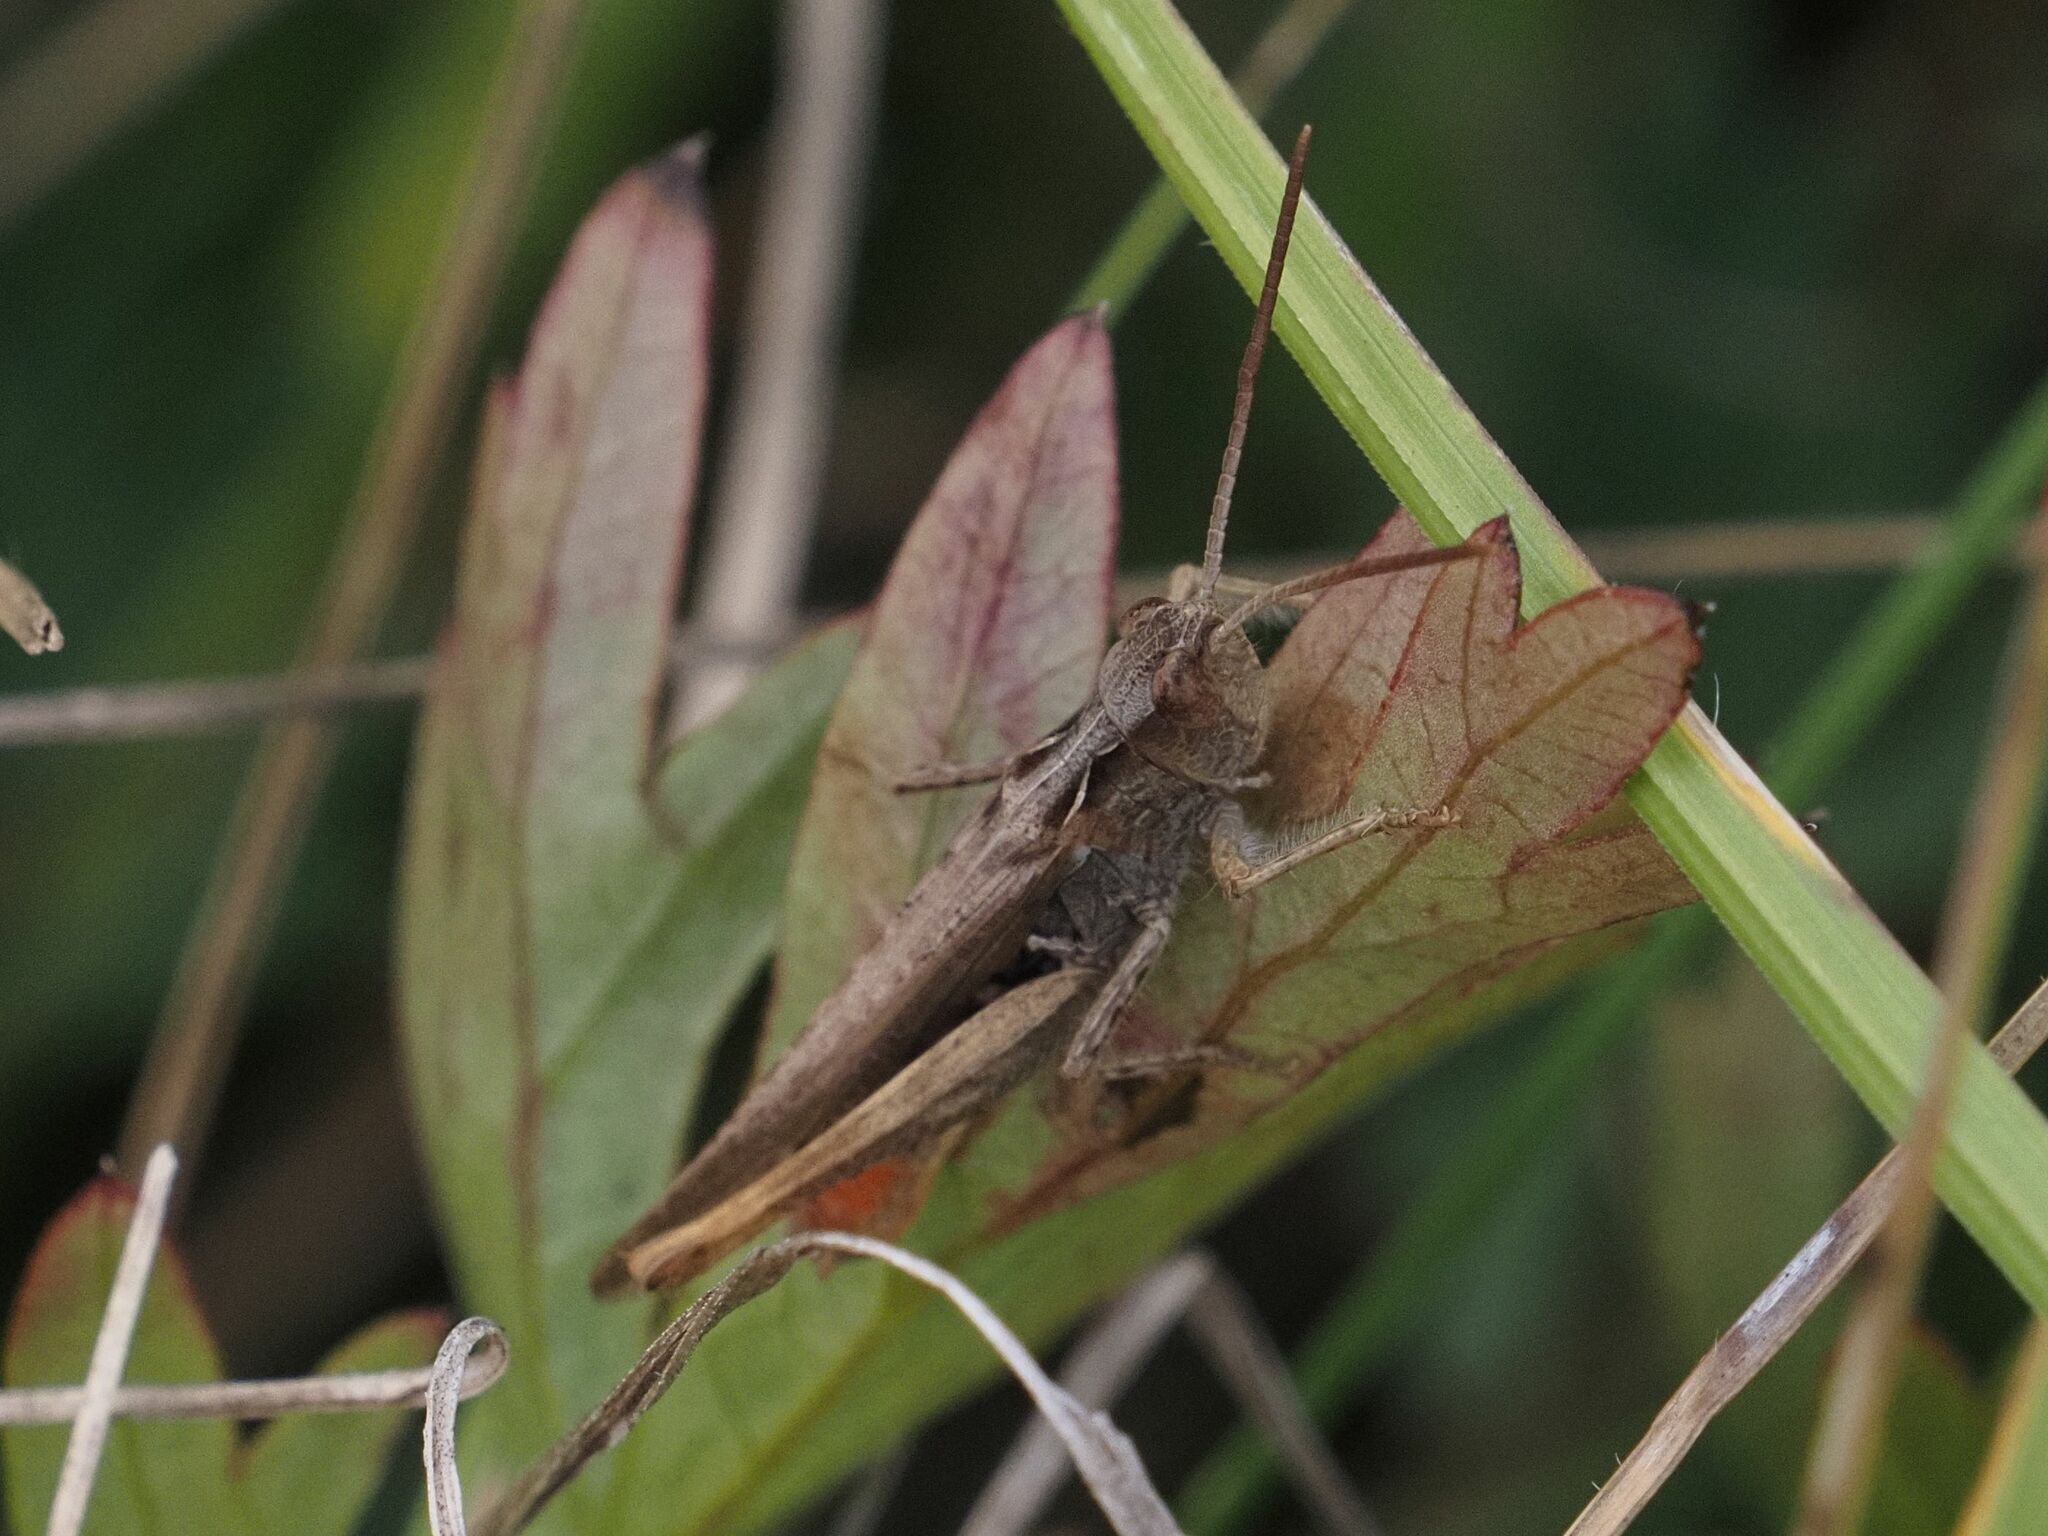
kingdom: Animalia
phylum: Arthropoda
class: Insecta
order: Orthoptera
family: Acrididae
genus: Chorthippus
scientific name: Chorthippus brunneus
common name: Field grasshopper
